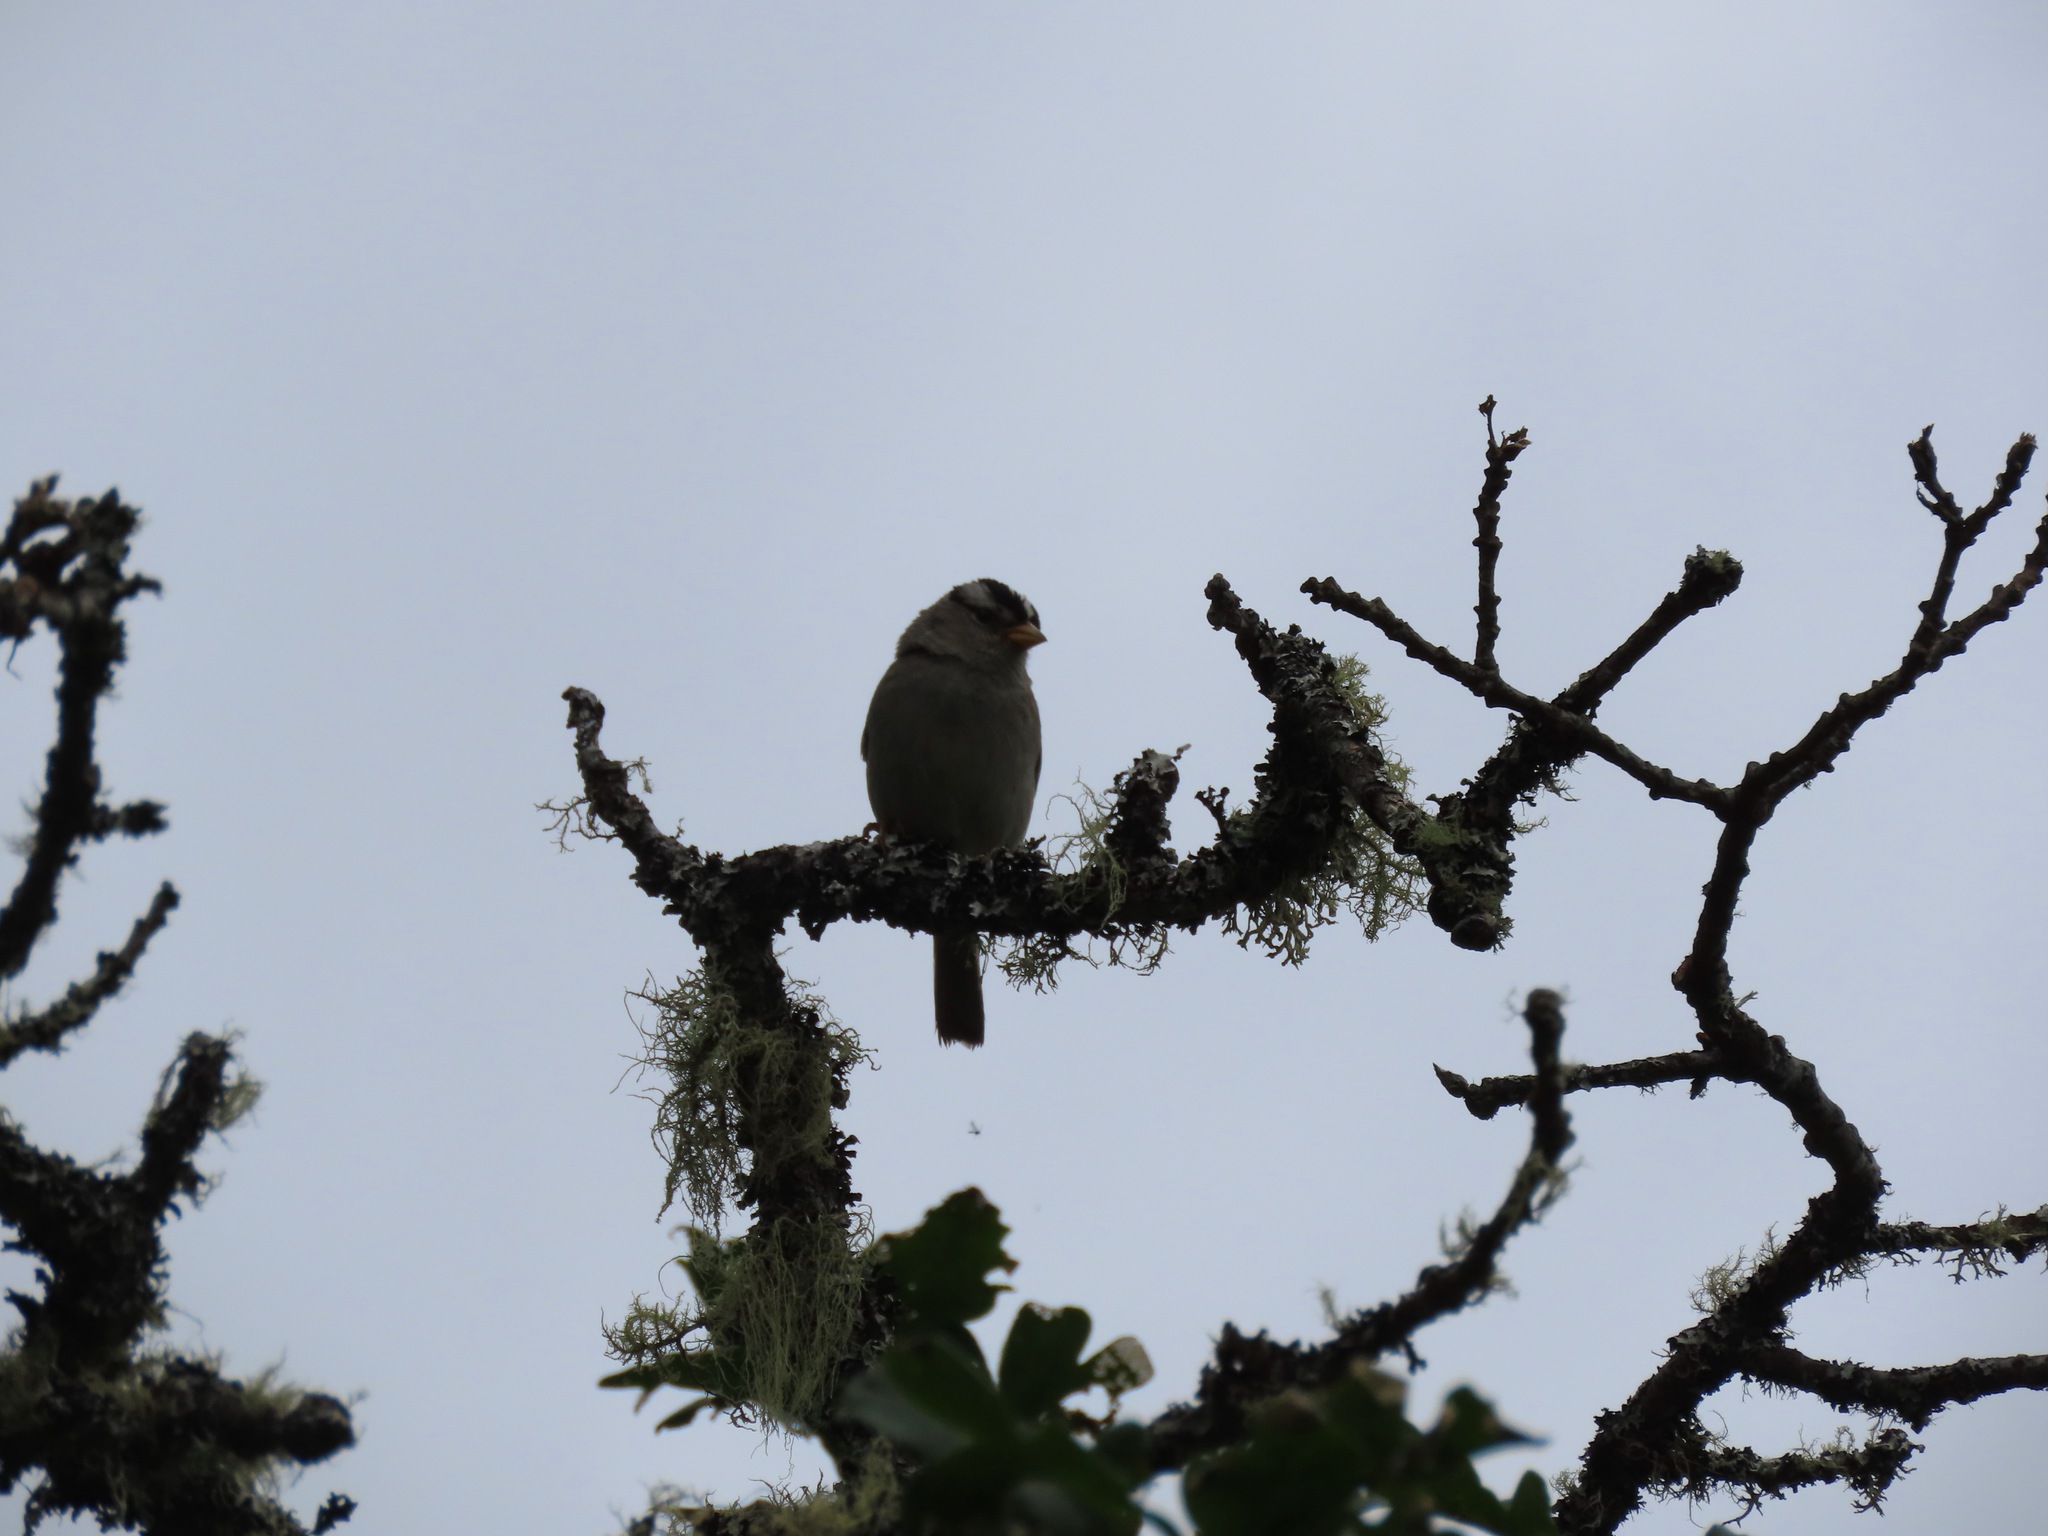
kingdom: Animalia
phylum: Chordata
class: Aves
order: Passeriformes
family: Passerellidae
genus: Zonotrichia
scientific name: Zonotrichia leucophrys
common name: White-crowned sparrow
